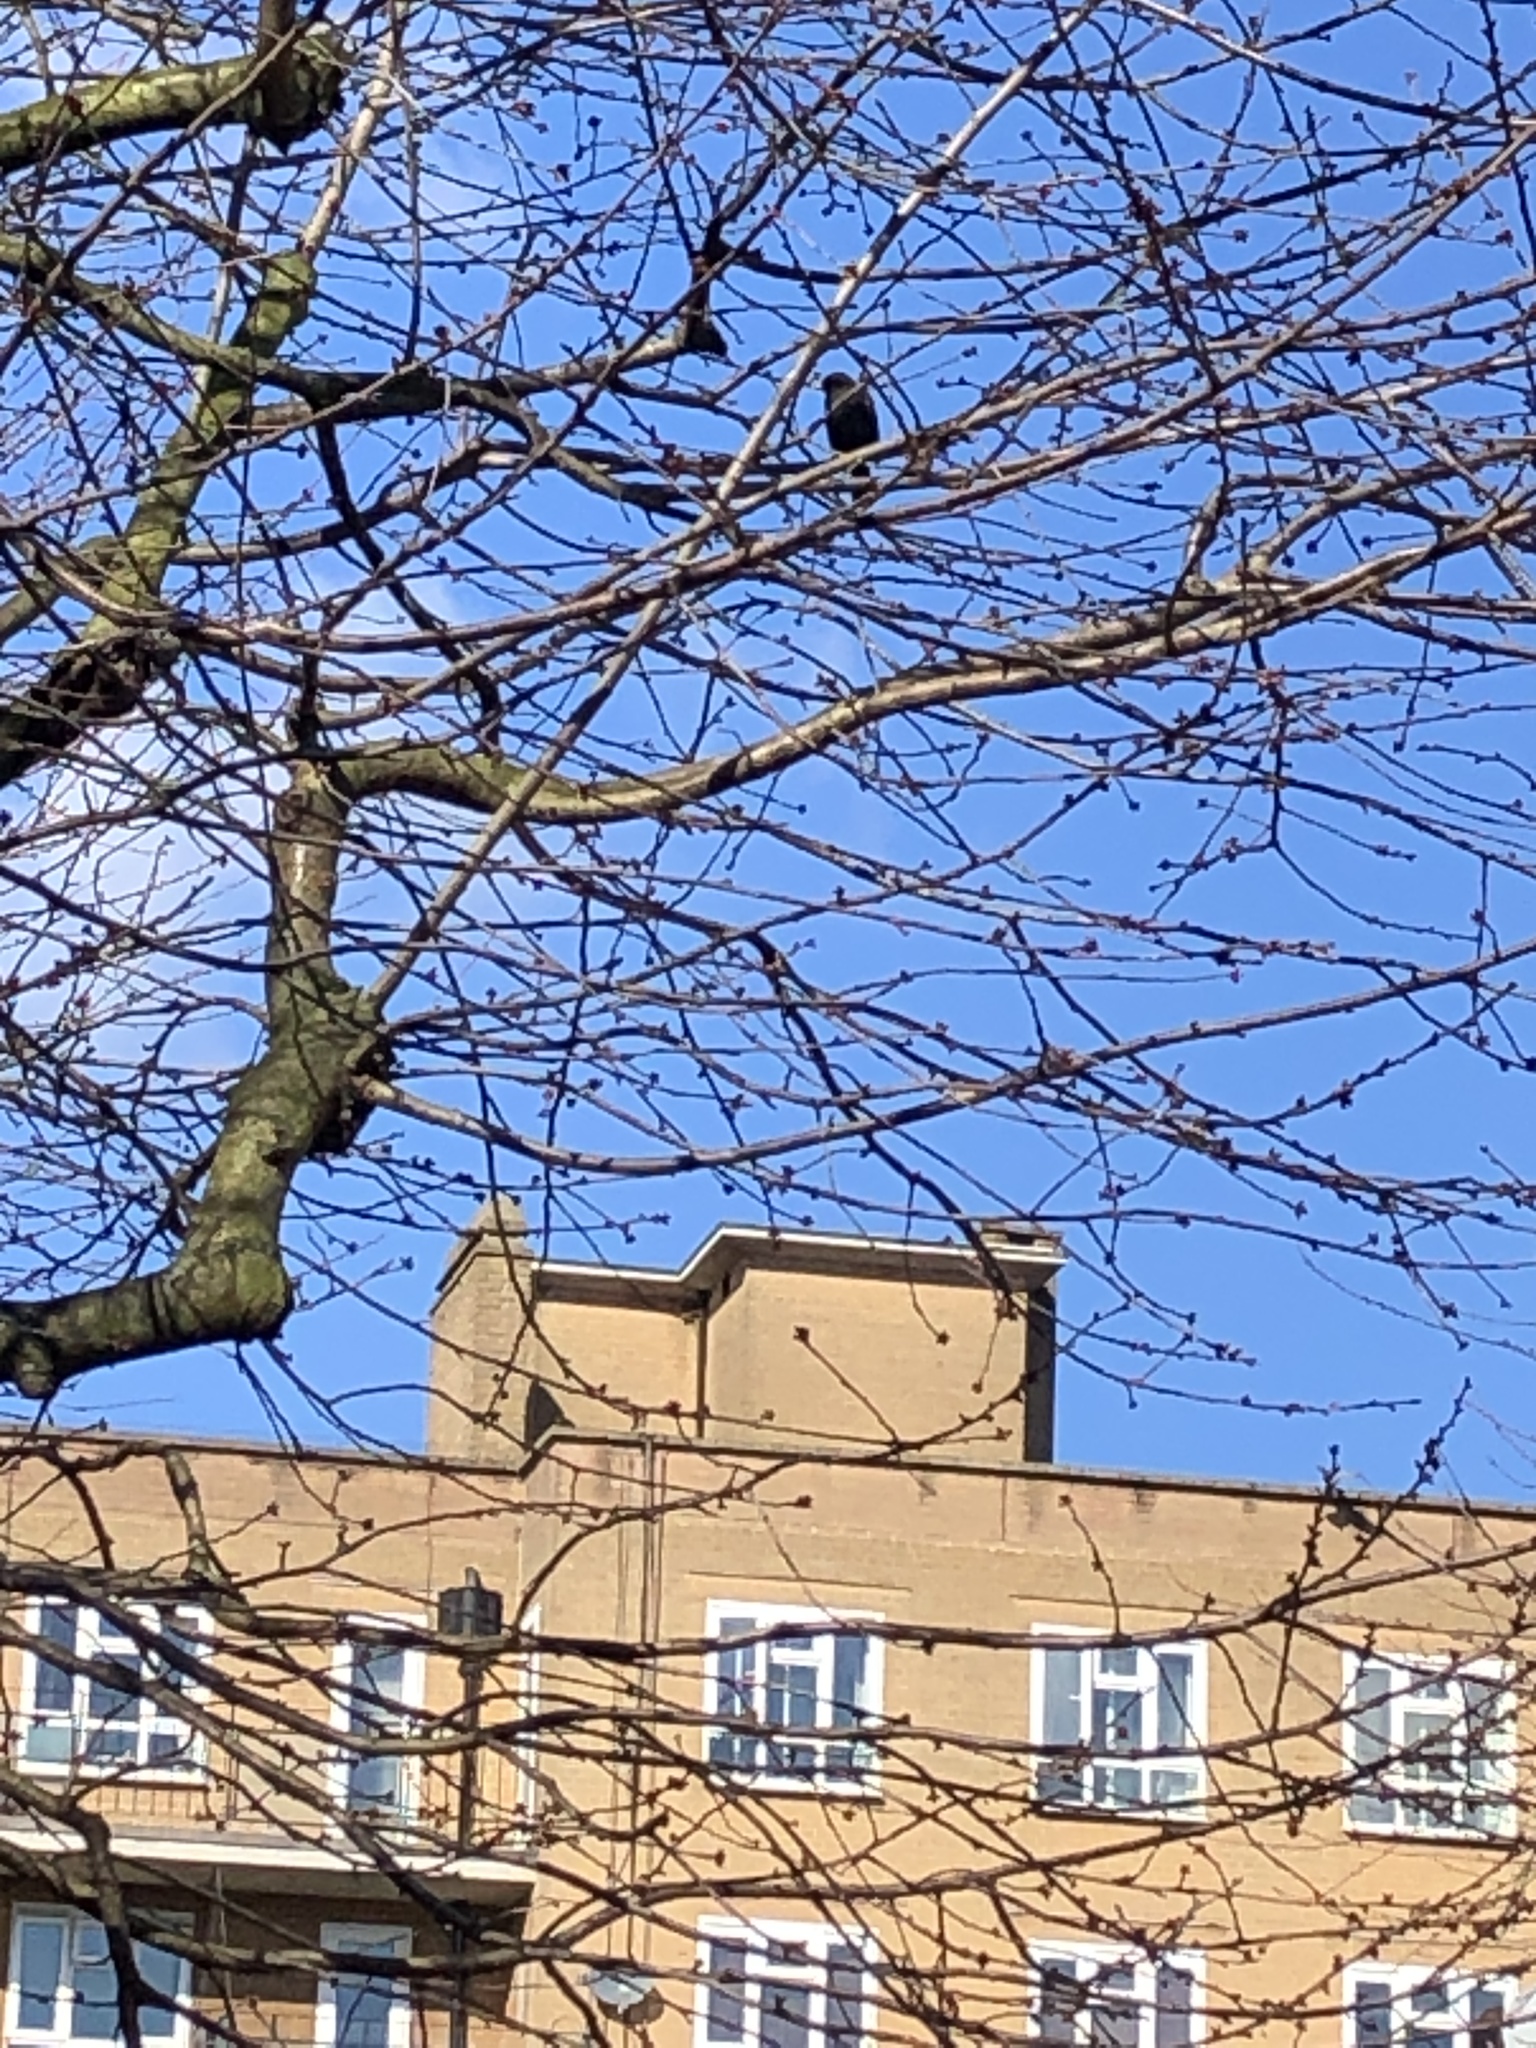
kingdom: Animalia
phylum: Chordata
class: Aves
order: Passeriformes
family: Turdidae
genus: Turdus
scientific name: Turdus merula
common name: Common blackbird
